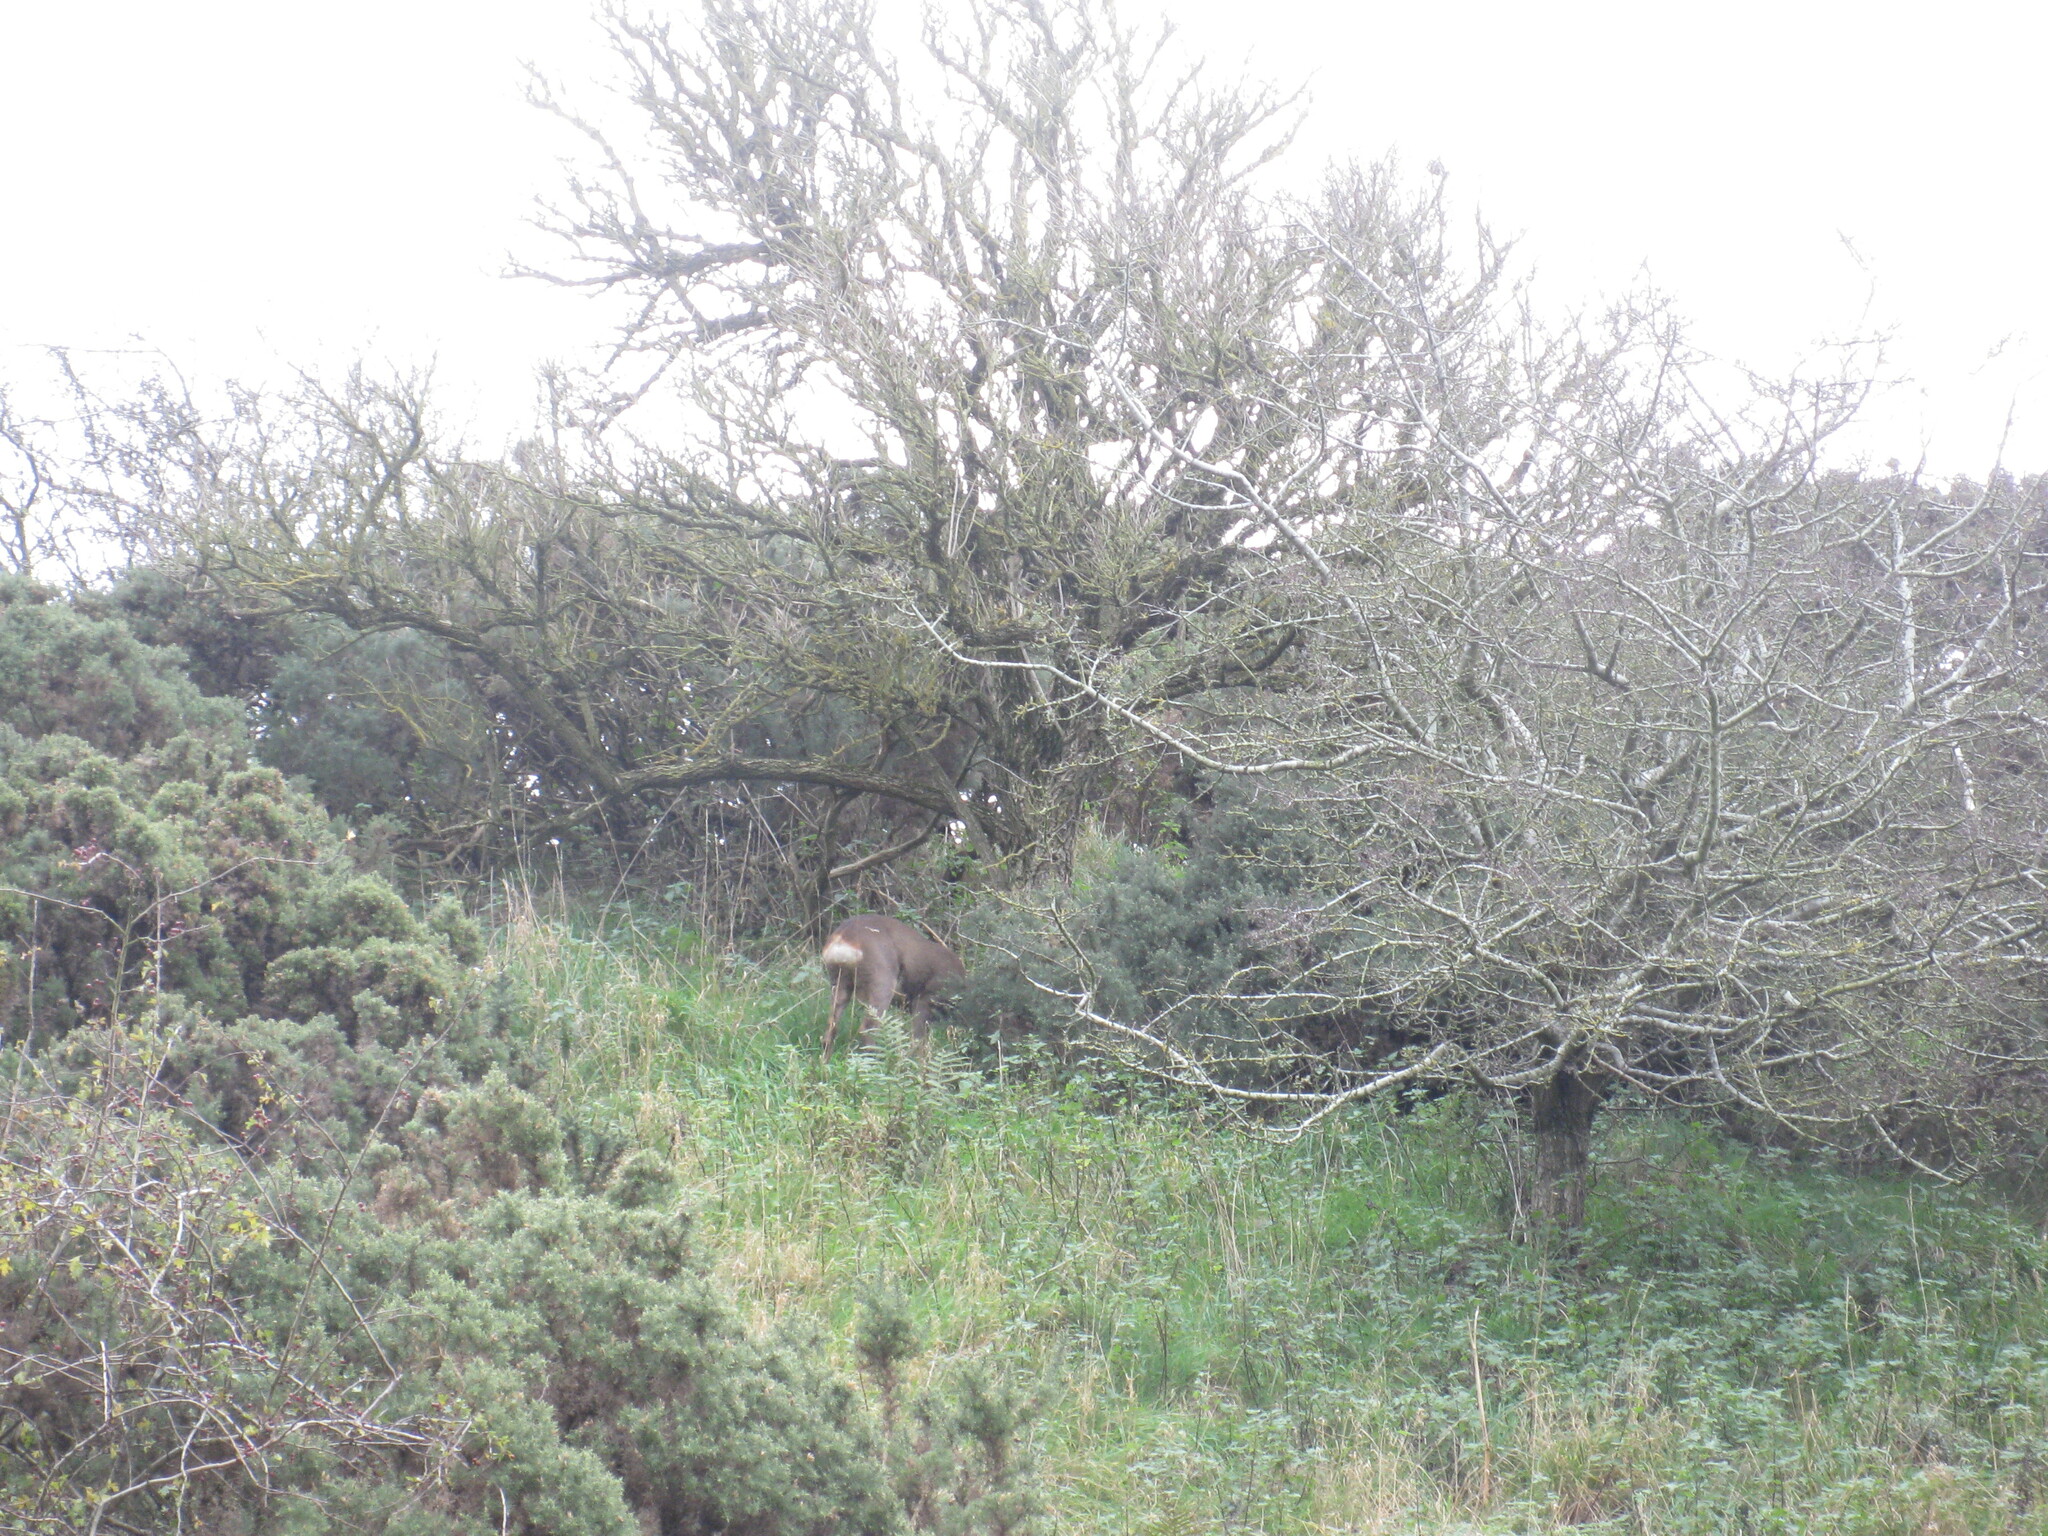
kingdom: Animalia
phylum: Chordata
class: Mammalia
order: Artiodactyla
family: Cervidae
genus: Capreolus
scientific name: Capreolus capreolus
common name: Western roe deer
